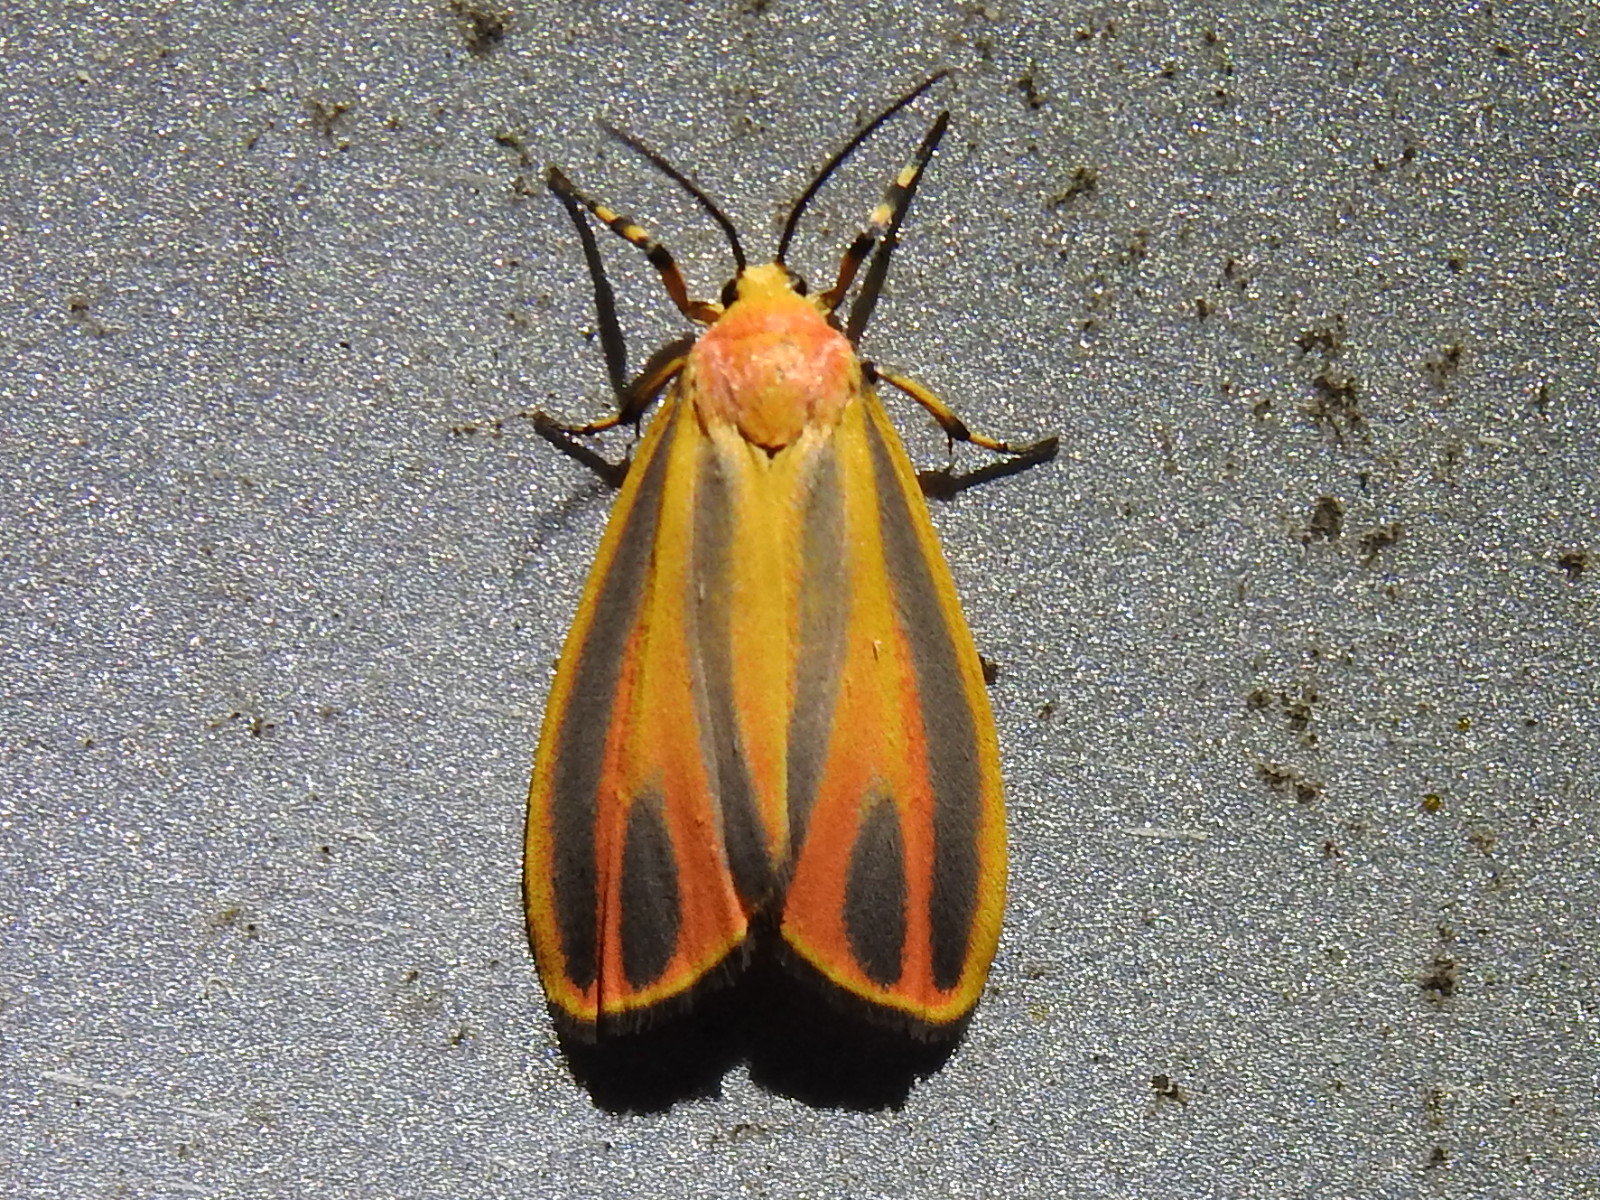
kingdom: Animalia
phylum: Arthropoda
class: Insecta
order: Lepidoptera
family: Erebidae
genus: Hypoprepia
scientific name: Hypoprepia fucosa
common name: Painted lichen moth
